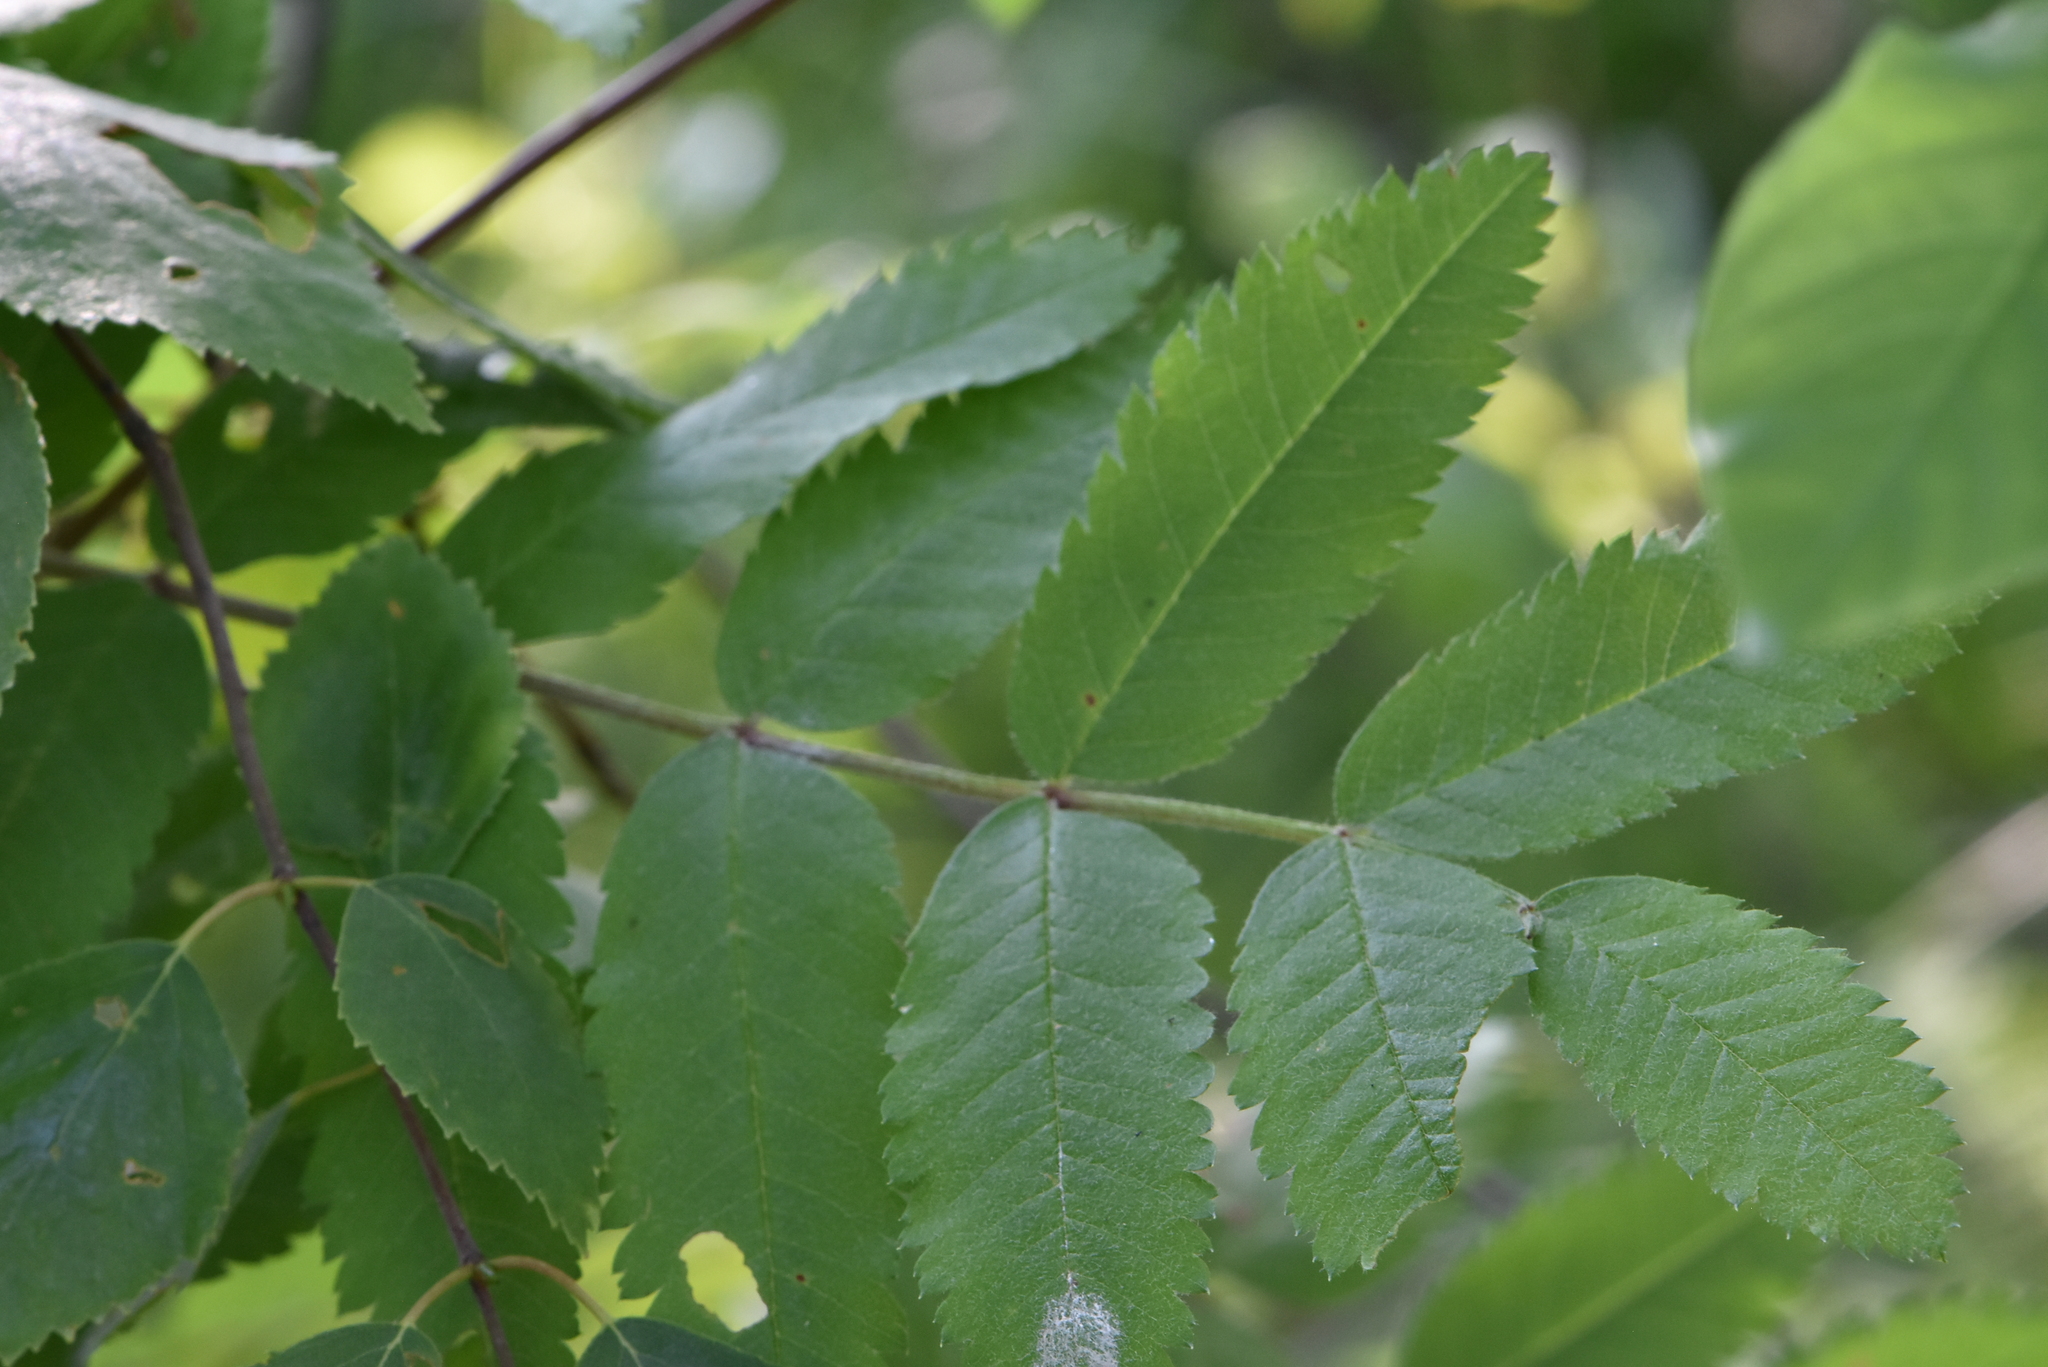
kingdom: Plantae
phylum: Tracheophyta
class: Magnoliopsida
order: Rosales
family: Rosaceae
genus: Sorbus
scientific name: Sorbus aucuparia
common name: Rowan
